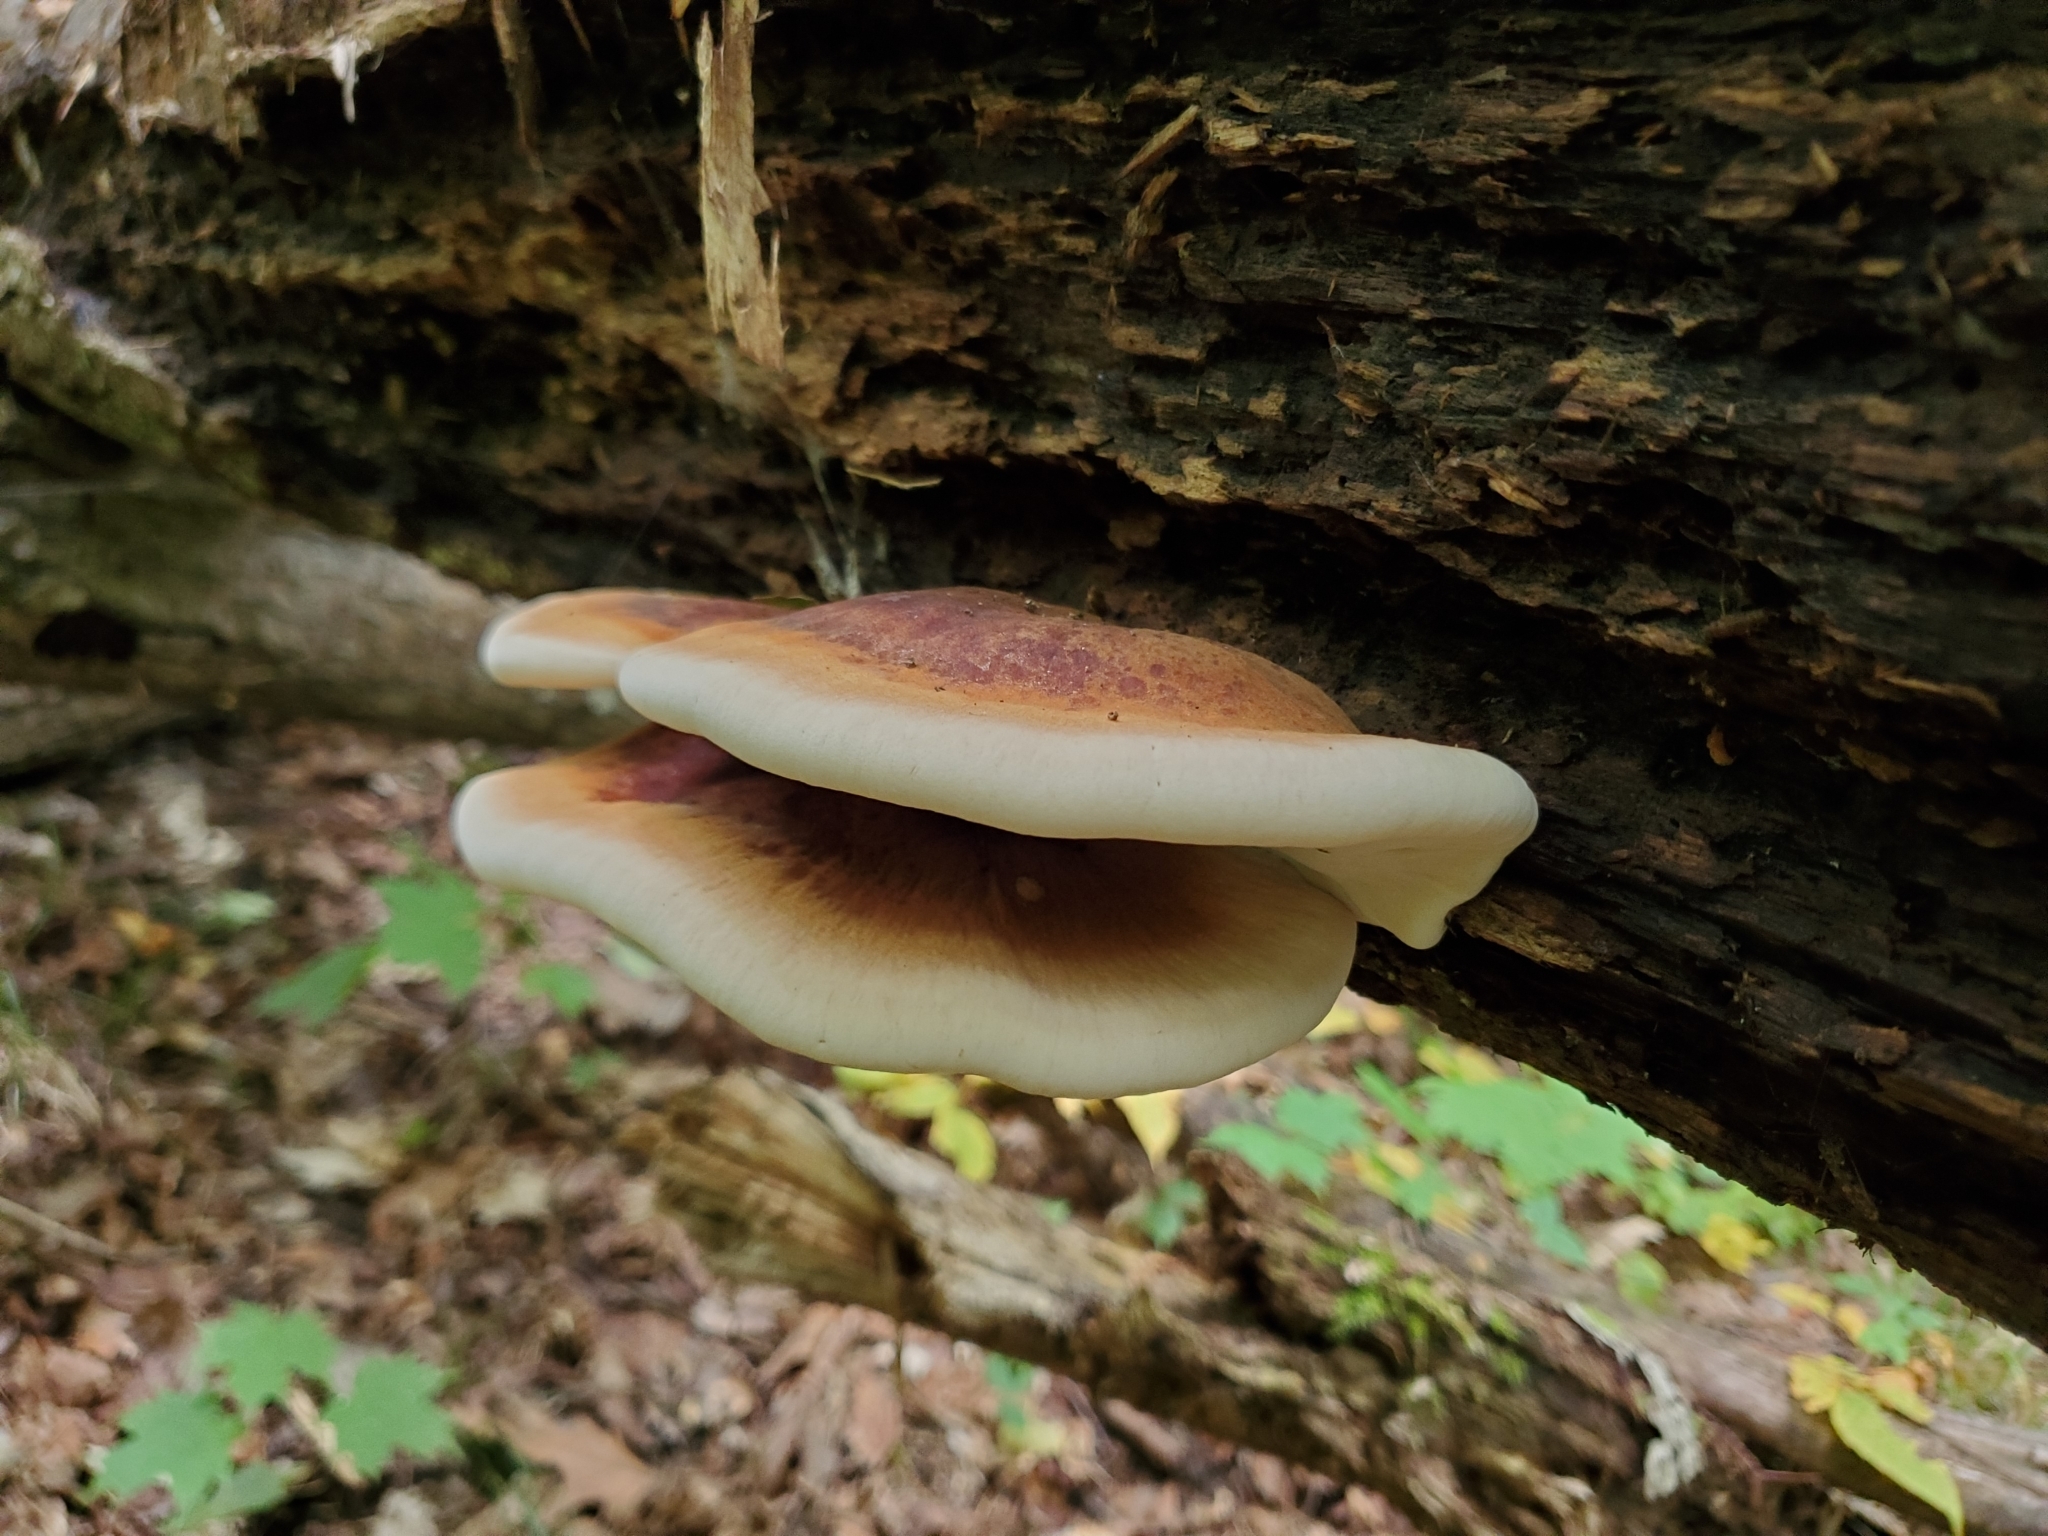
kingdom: Fungi
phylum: Basidiomycota
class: Agaricomycetes
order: Polyporales
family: Ischnodermataceae
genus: Ischnoderma
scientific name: Ischnoderma resinosum
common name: Resinous polypore
